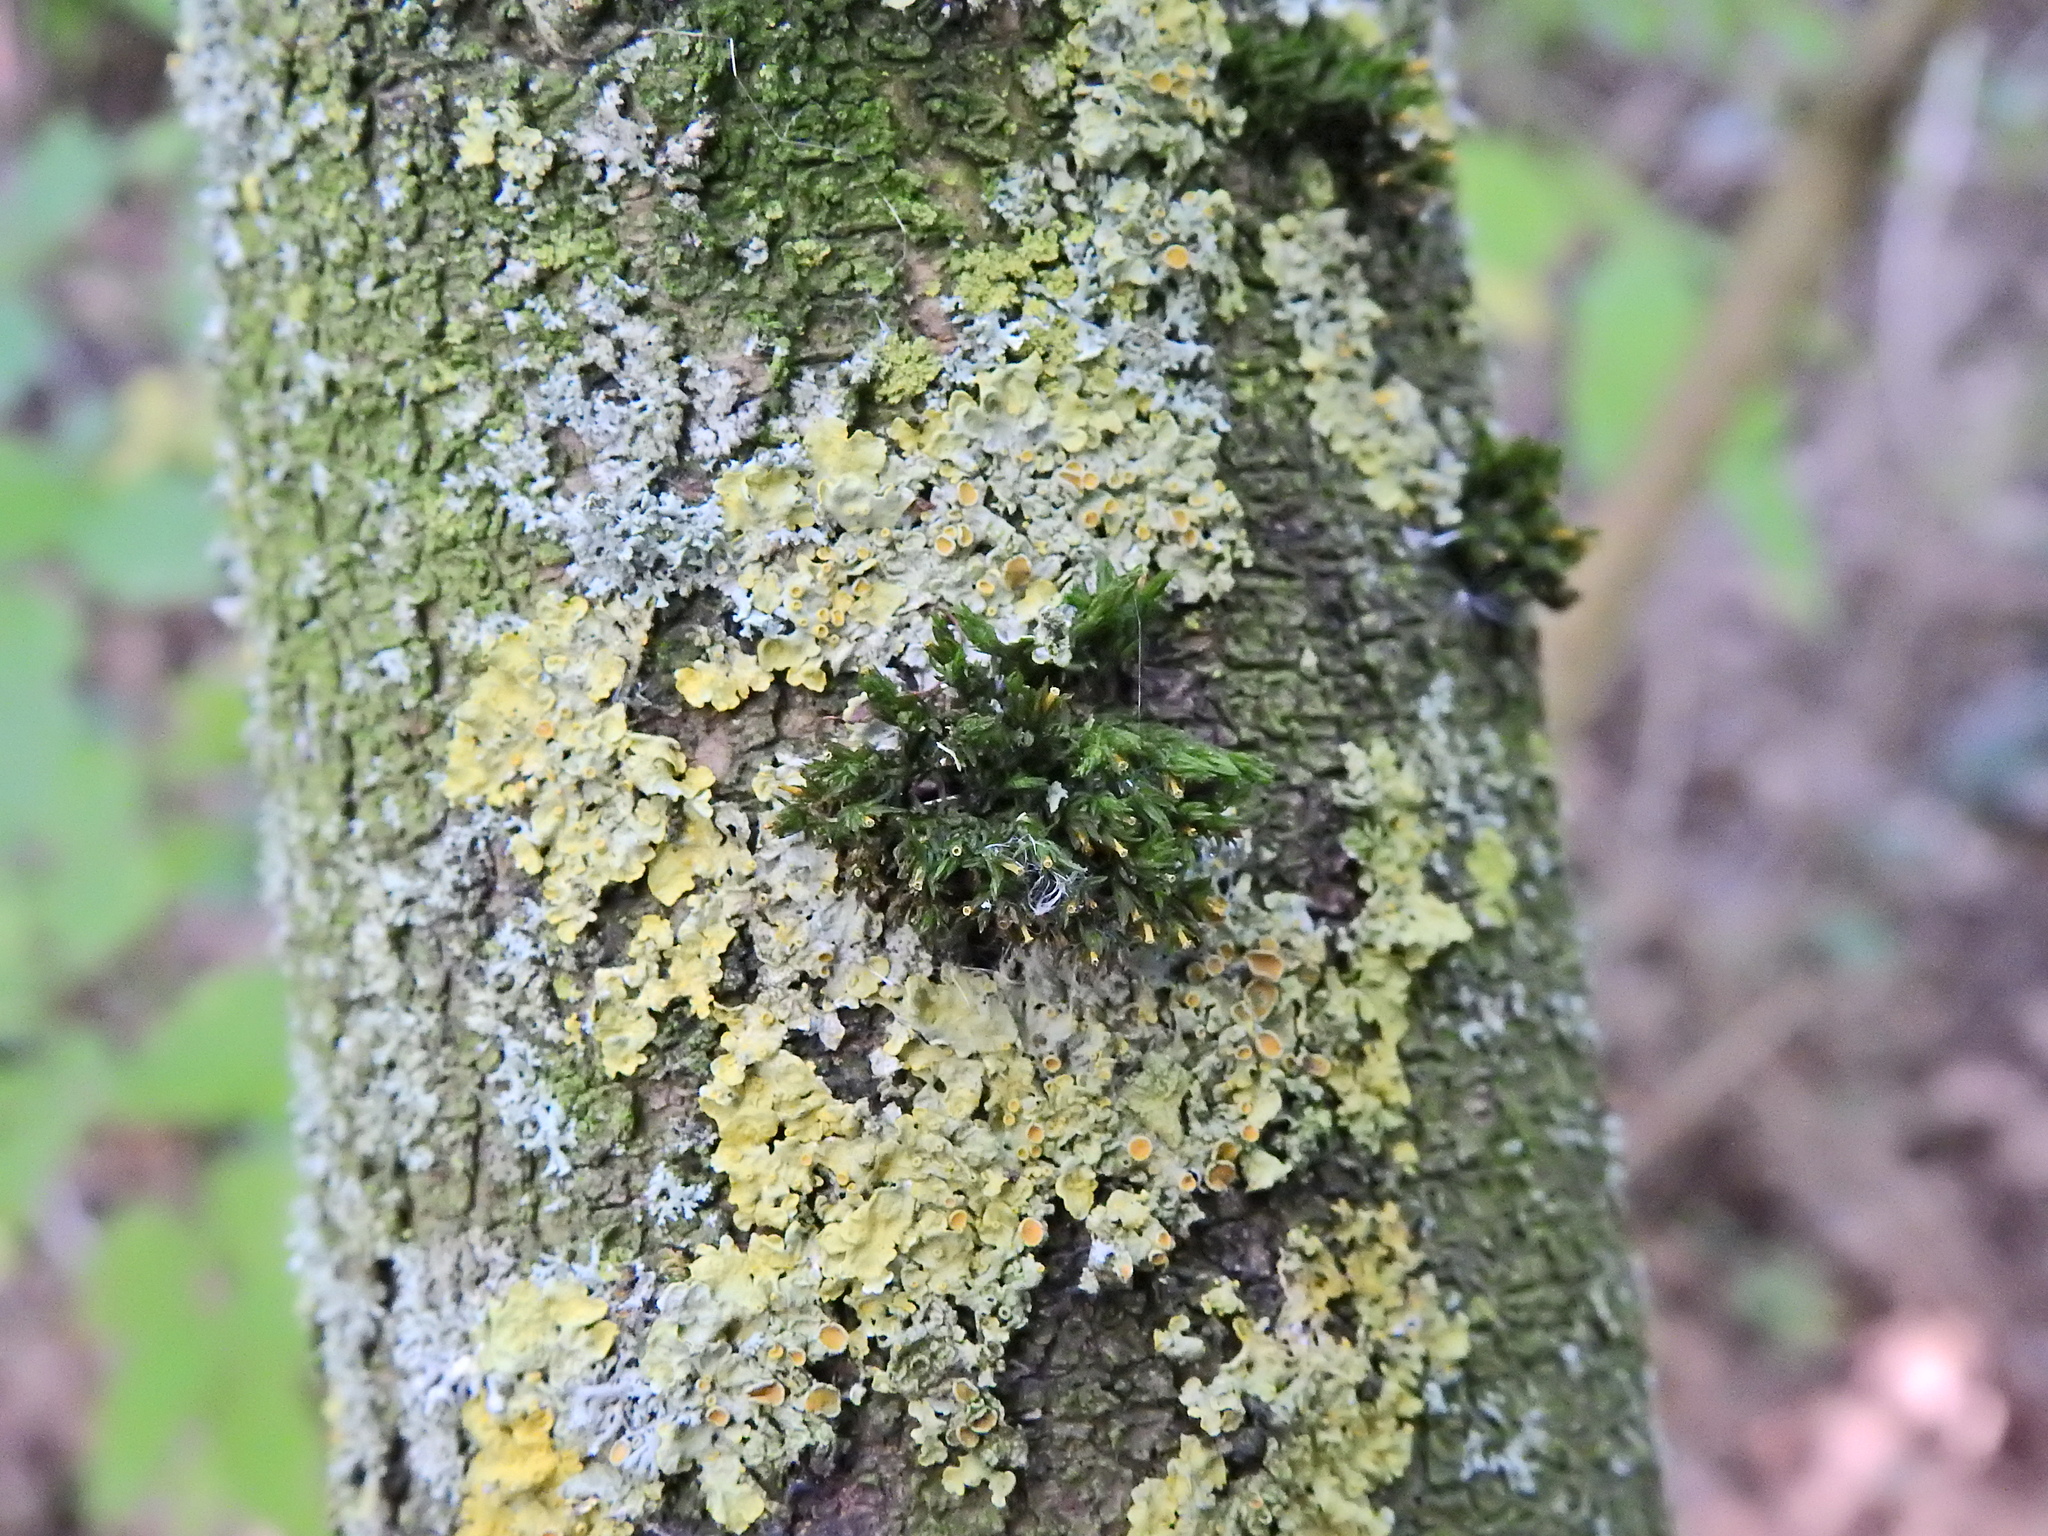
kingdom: Plantae
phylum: Bryophyta
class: Bryopsida
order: Orthotrichales
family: Orthotrichaceae
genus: Lewinskya
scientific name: Lewinskya affinis
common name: Wood bristle-moss
